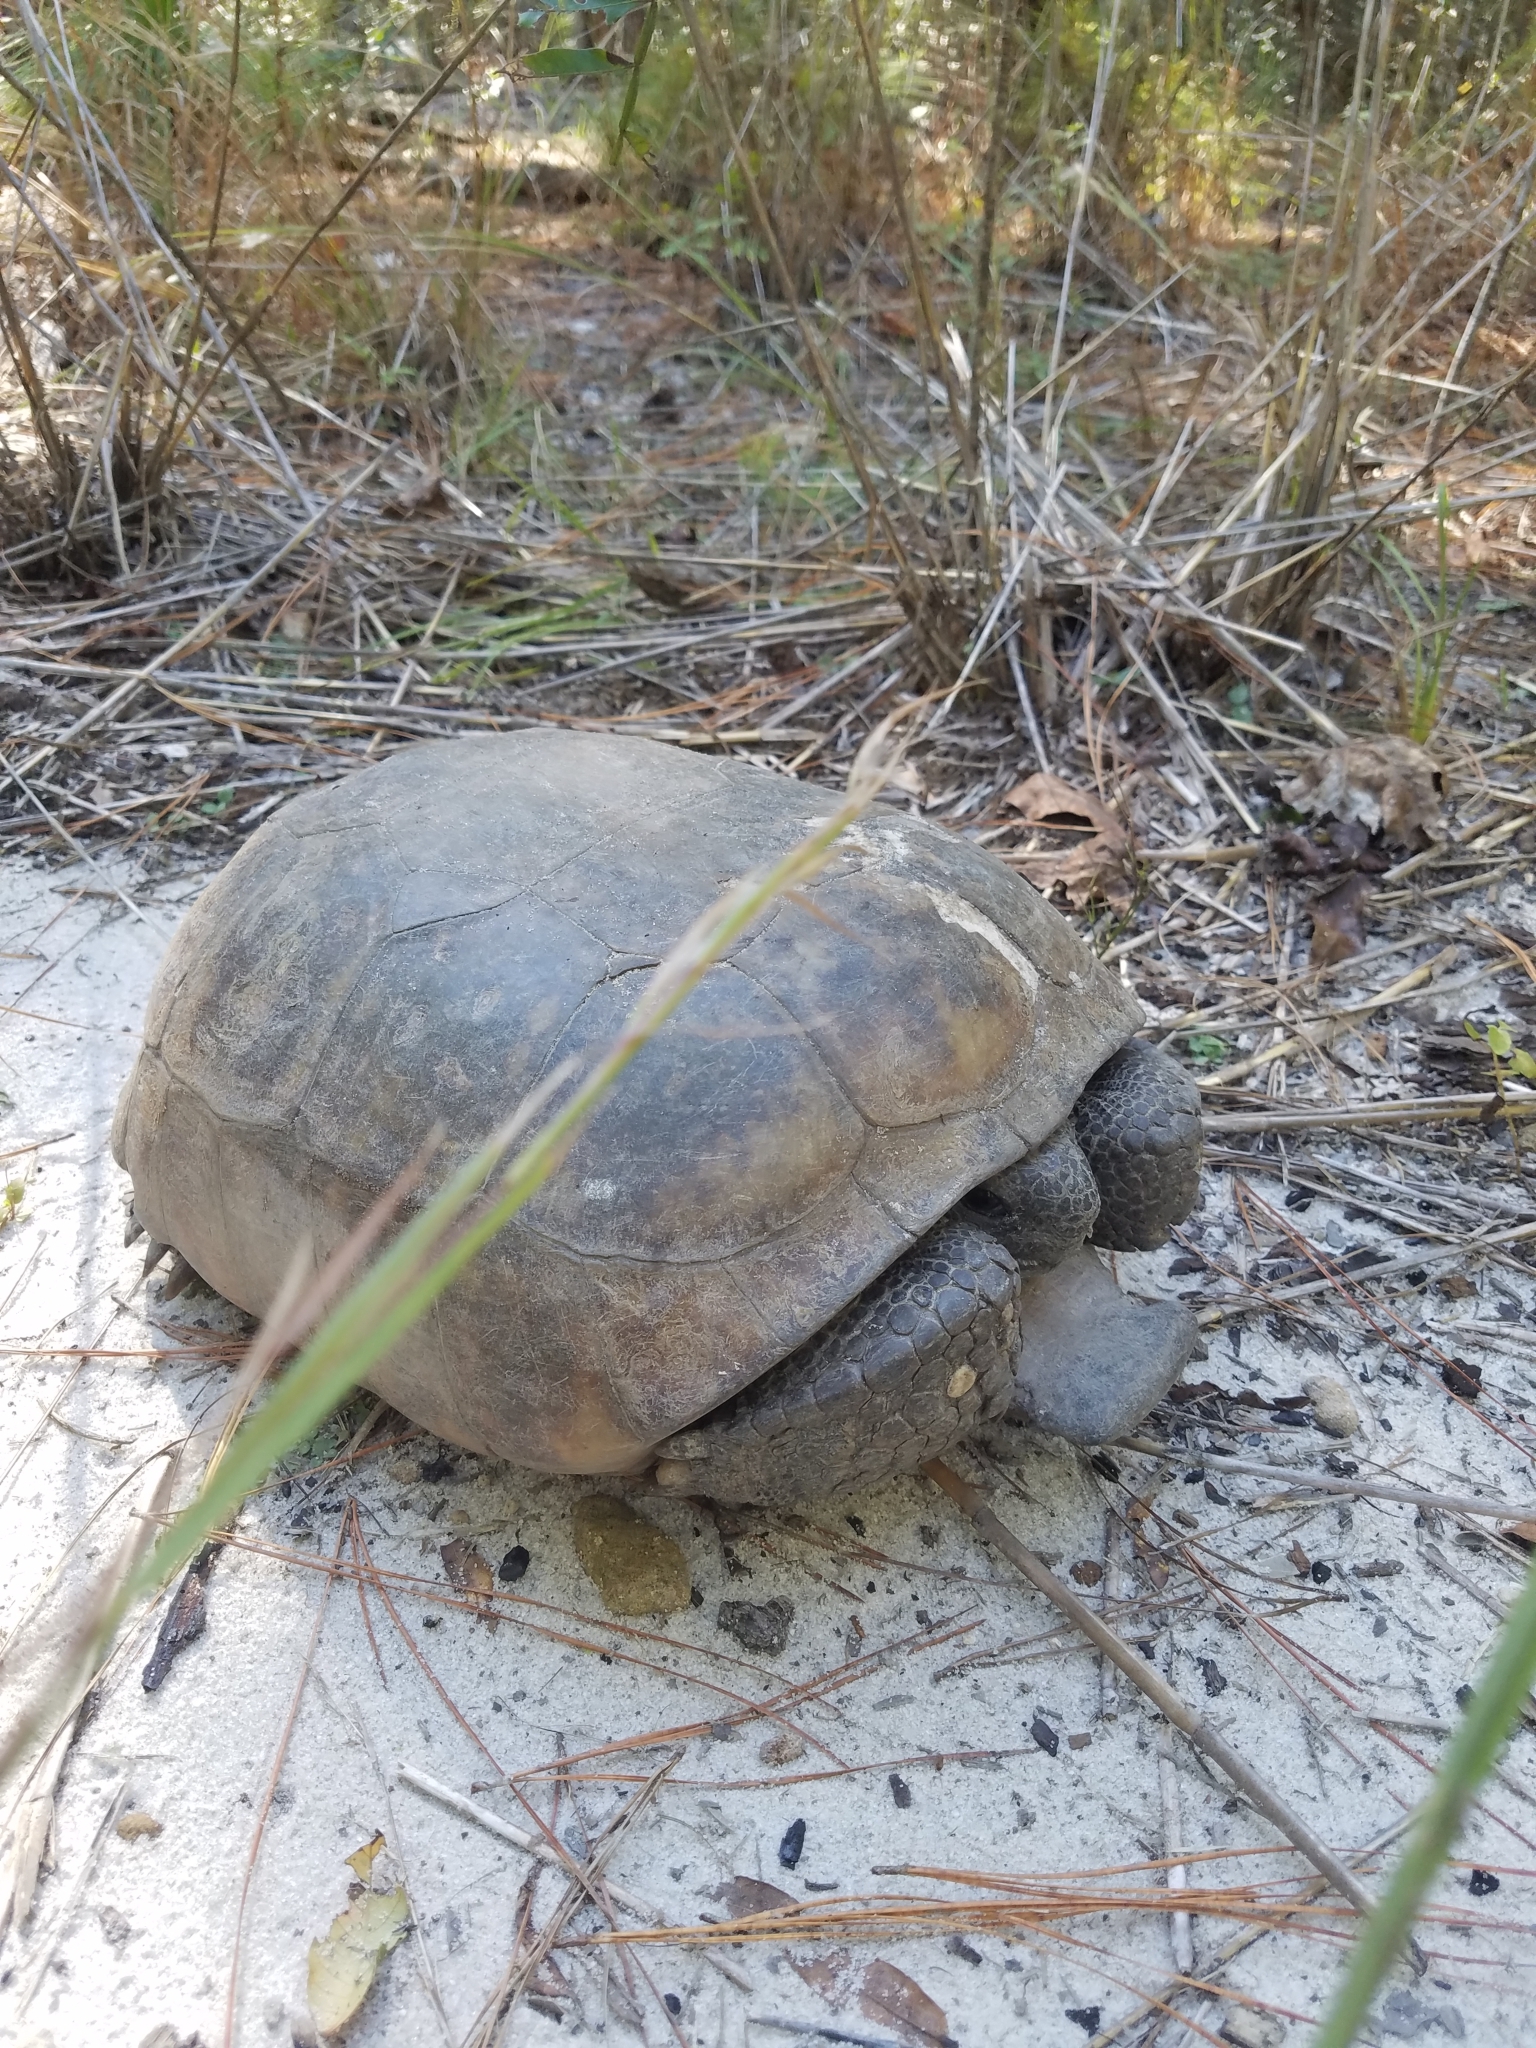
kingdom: Animalia
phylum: Chordata
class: Testudines
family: Testudinidae
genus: Gopherus
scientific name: Gopherus polyphemus
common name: Florida gopher tortoise
